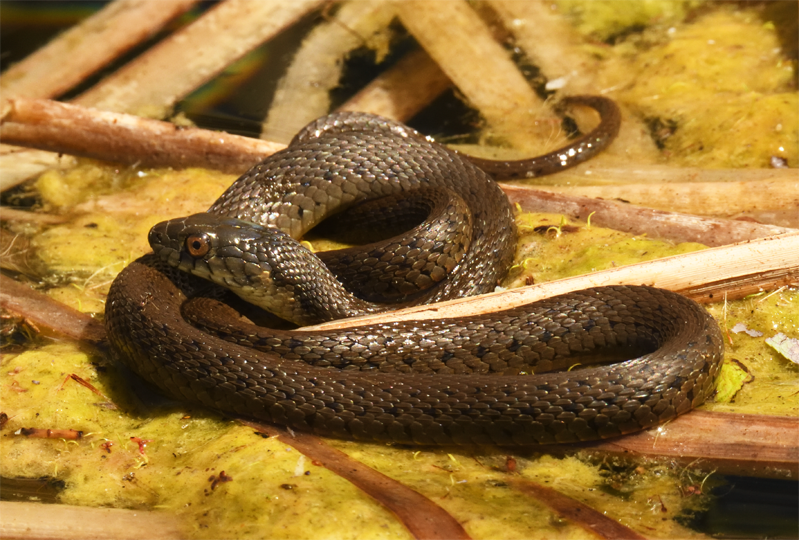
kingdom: Animalia
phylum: Chordata
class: Squamata
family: Colubridae
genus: Thamnophis
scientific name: Thamnophis hammondii
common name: Two-striped garter snake
